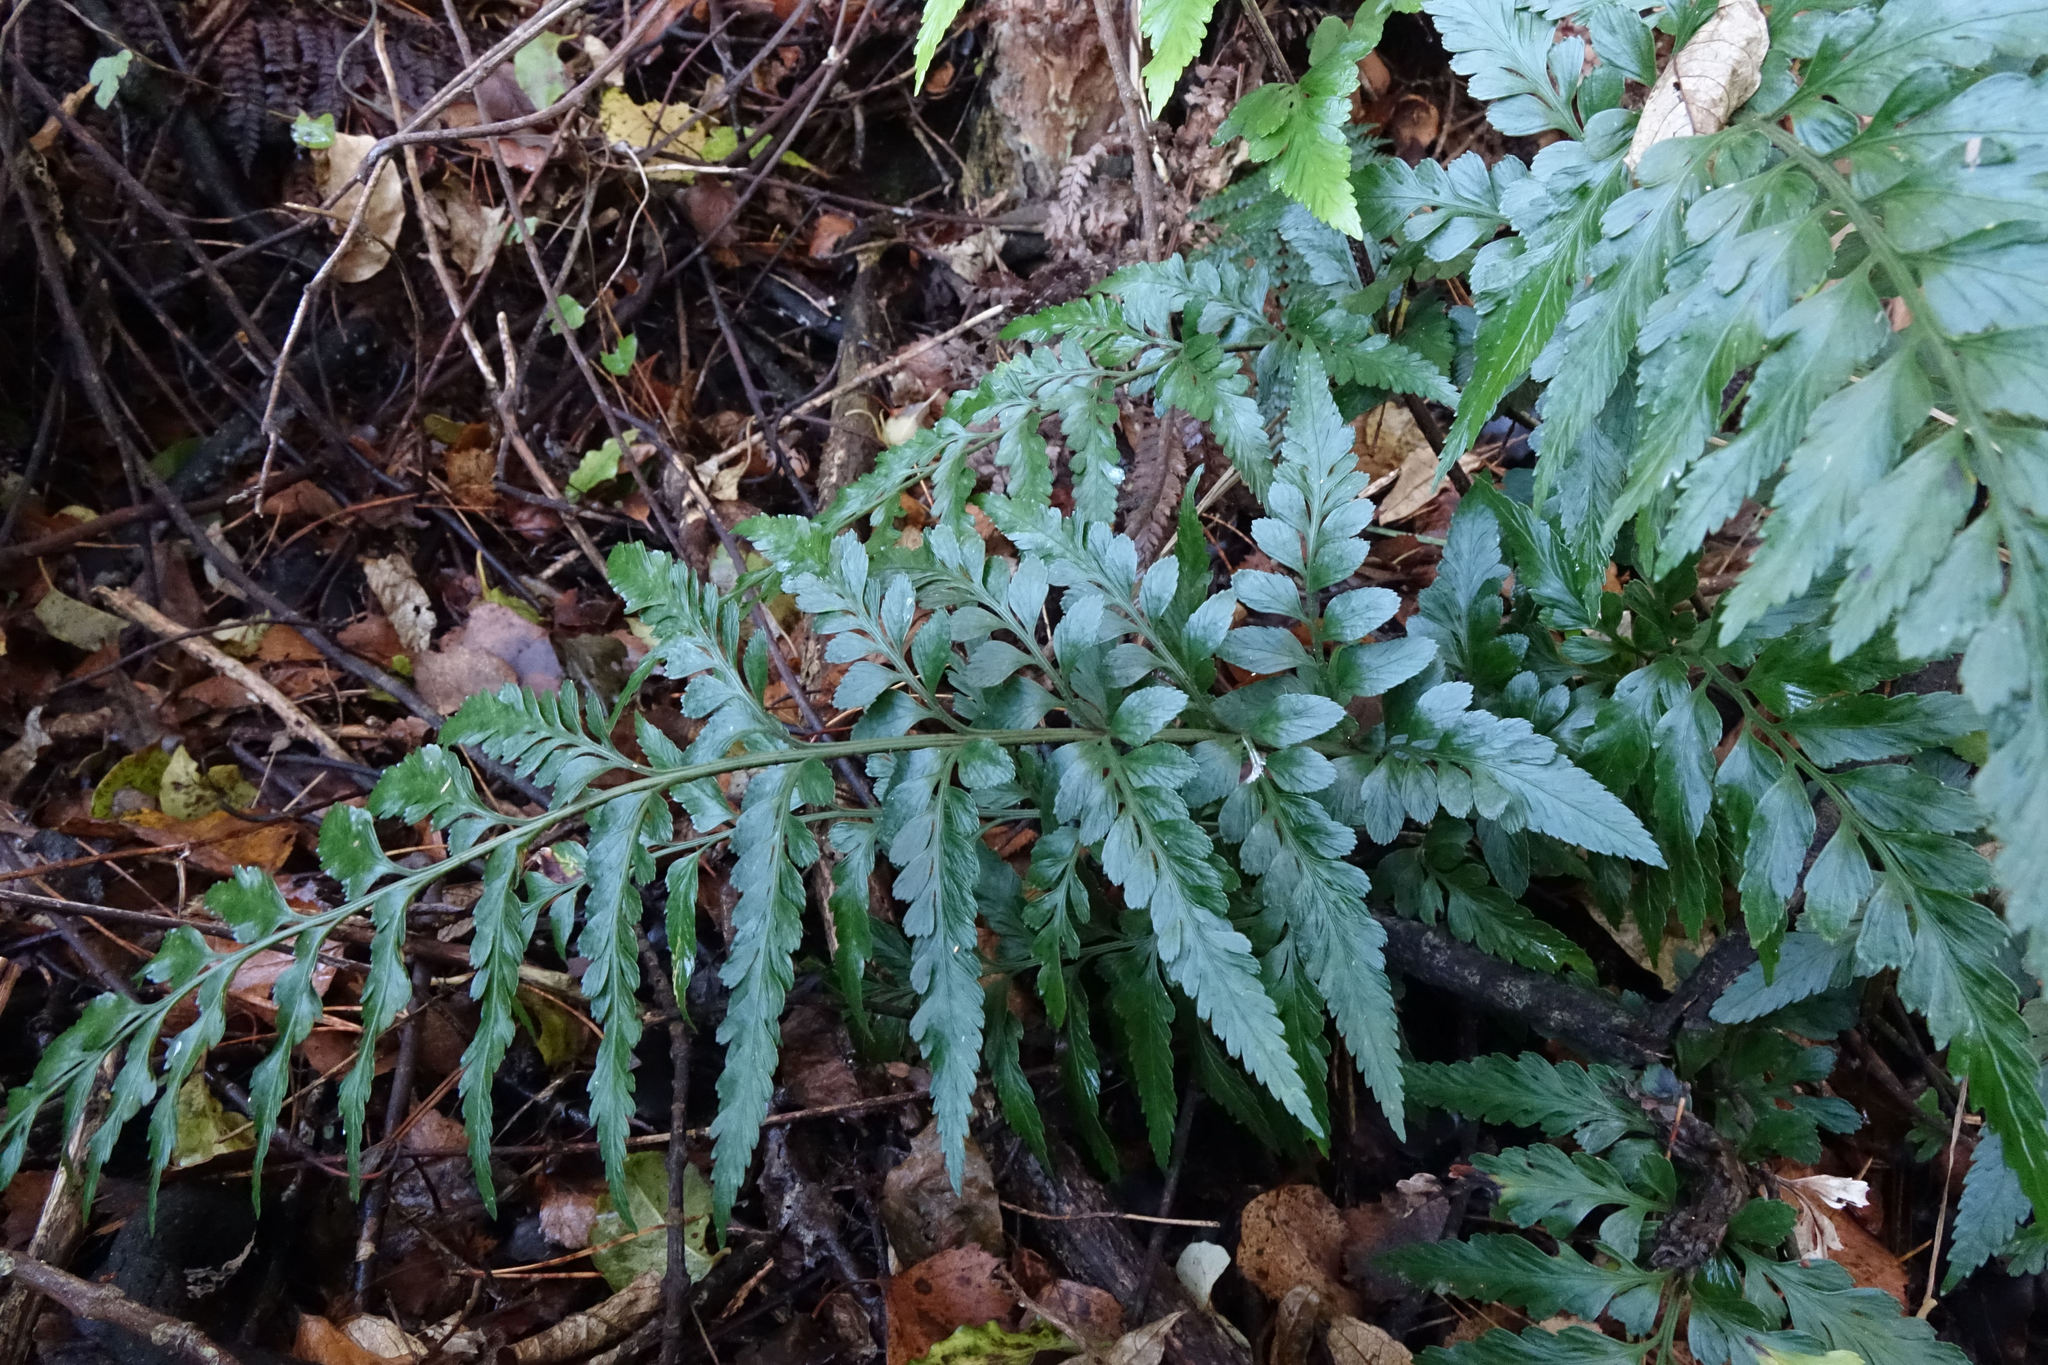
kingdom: Plantae
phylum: Tracheophyta
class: Polypodiopsida
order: Polypodiales
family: Aspleniaceae
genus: Asplenium
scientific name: Asplenium lyallii
